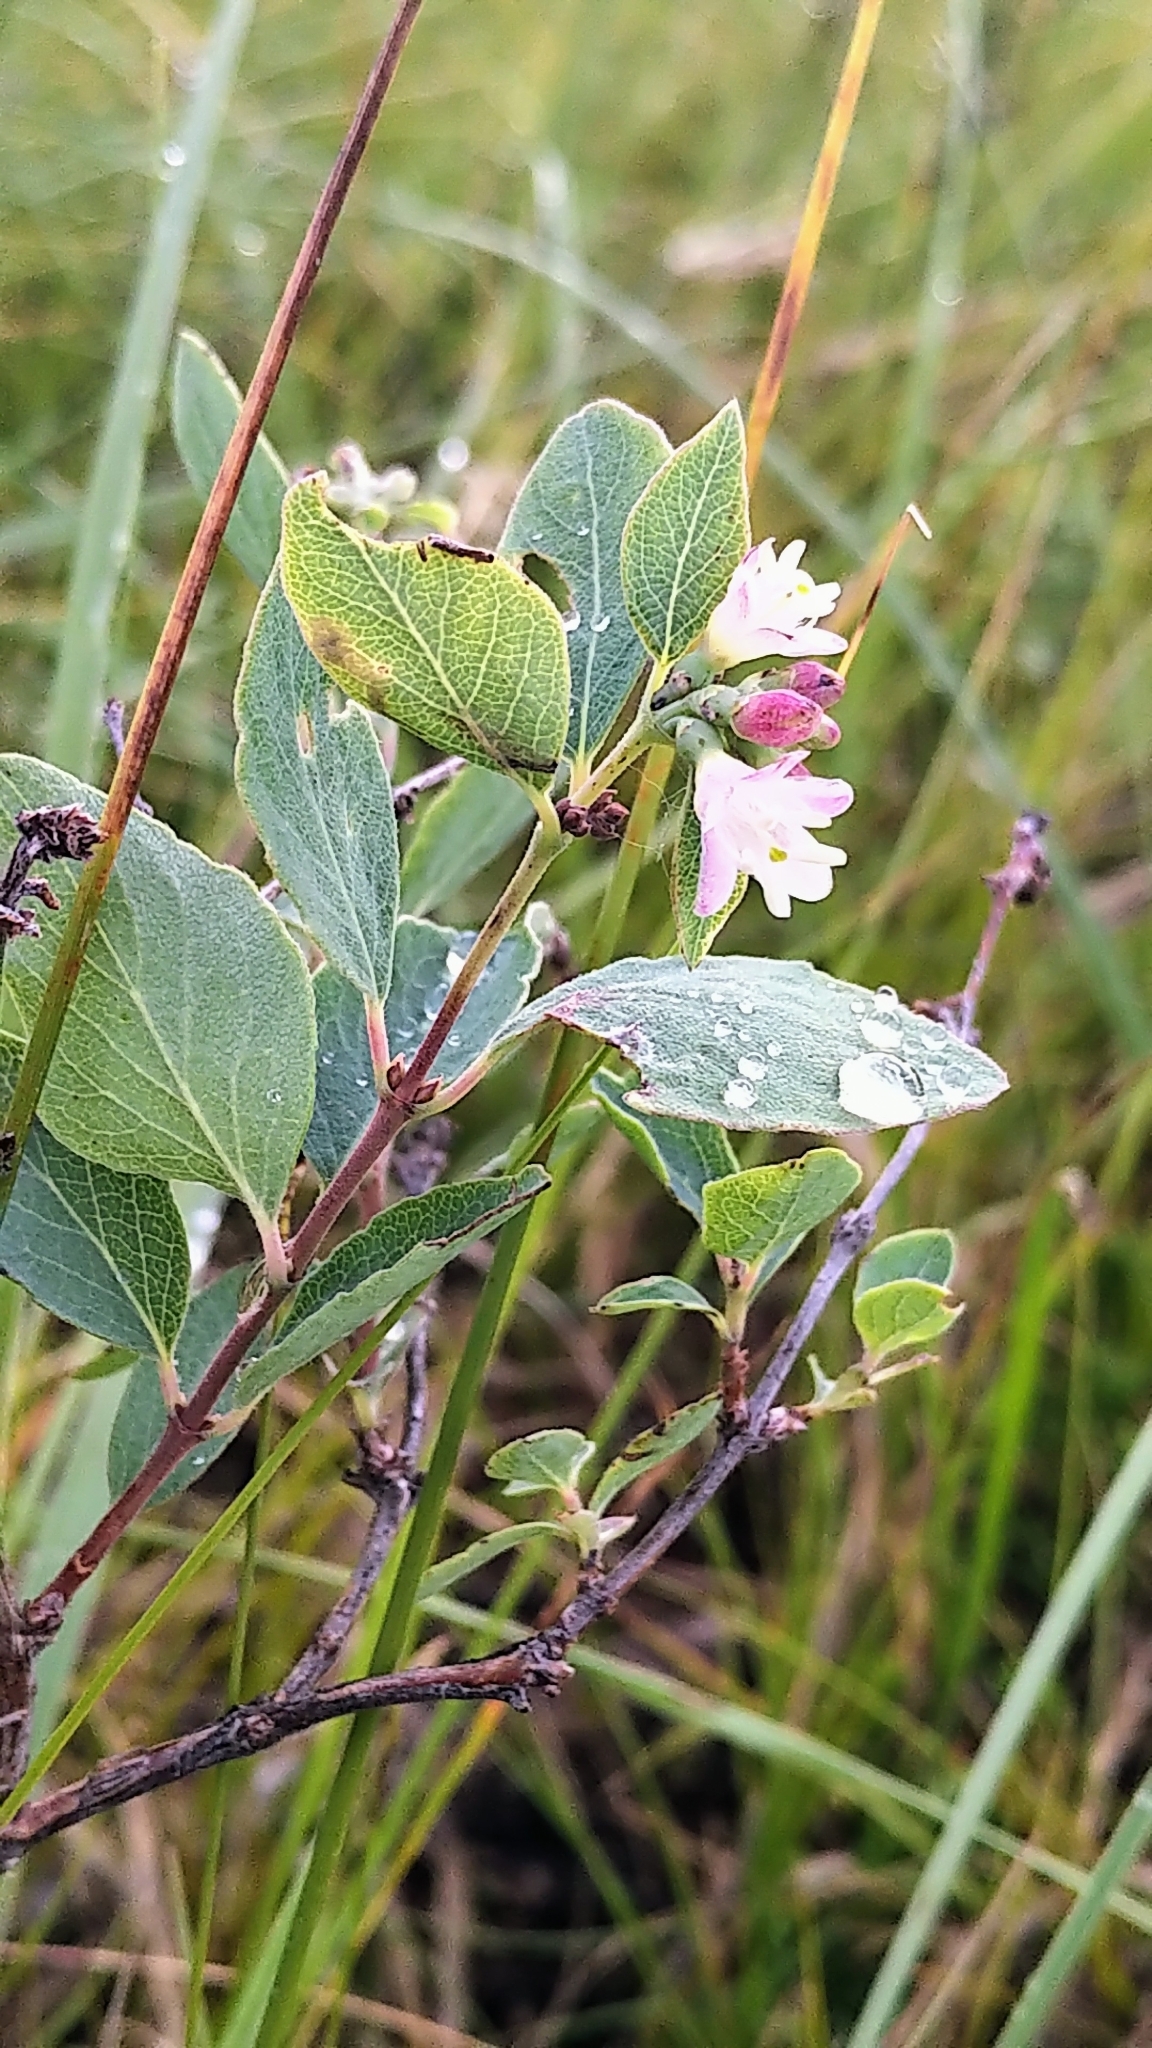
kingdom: Plantae
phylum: Tracheophyta
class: Magnoliopsida
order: Dipsacales
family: Caprifoliaceae
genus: Symphoricarpos
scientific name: Symphoricarpos occidentalis
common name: Wolfberry
